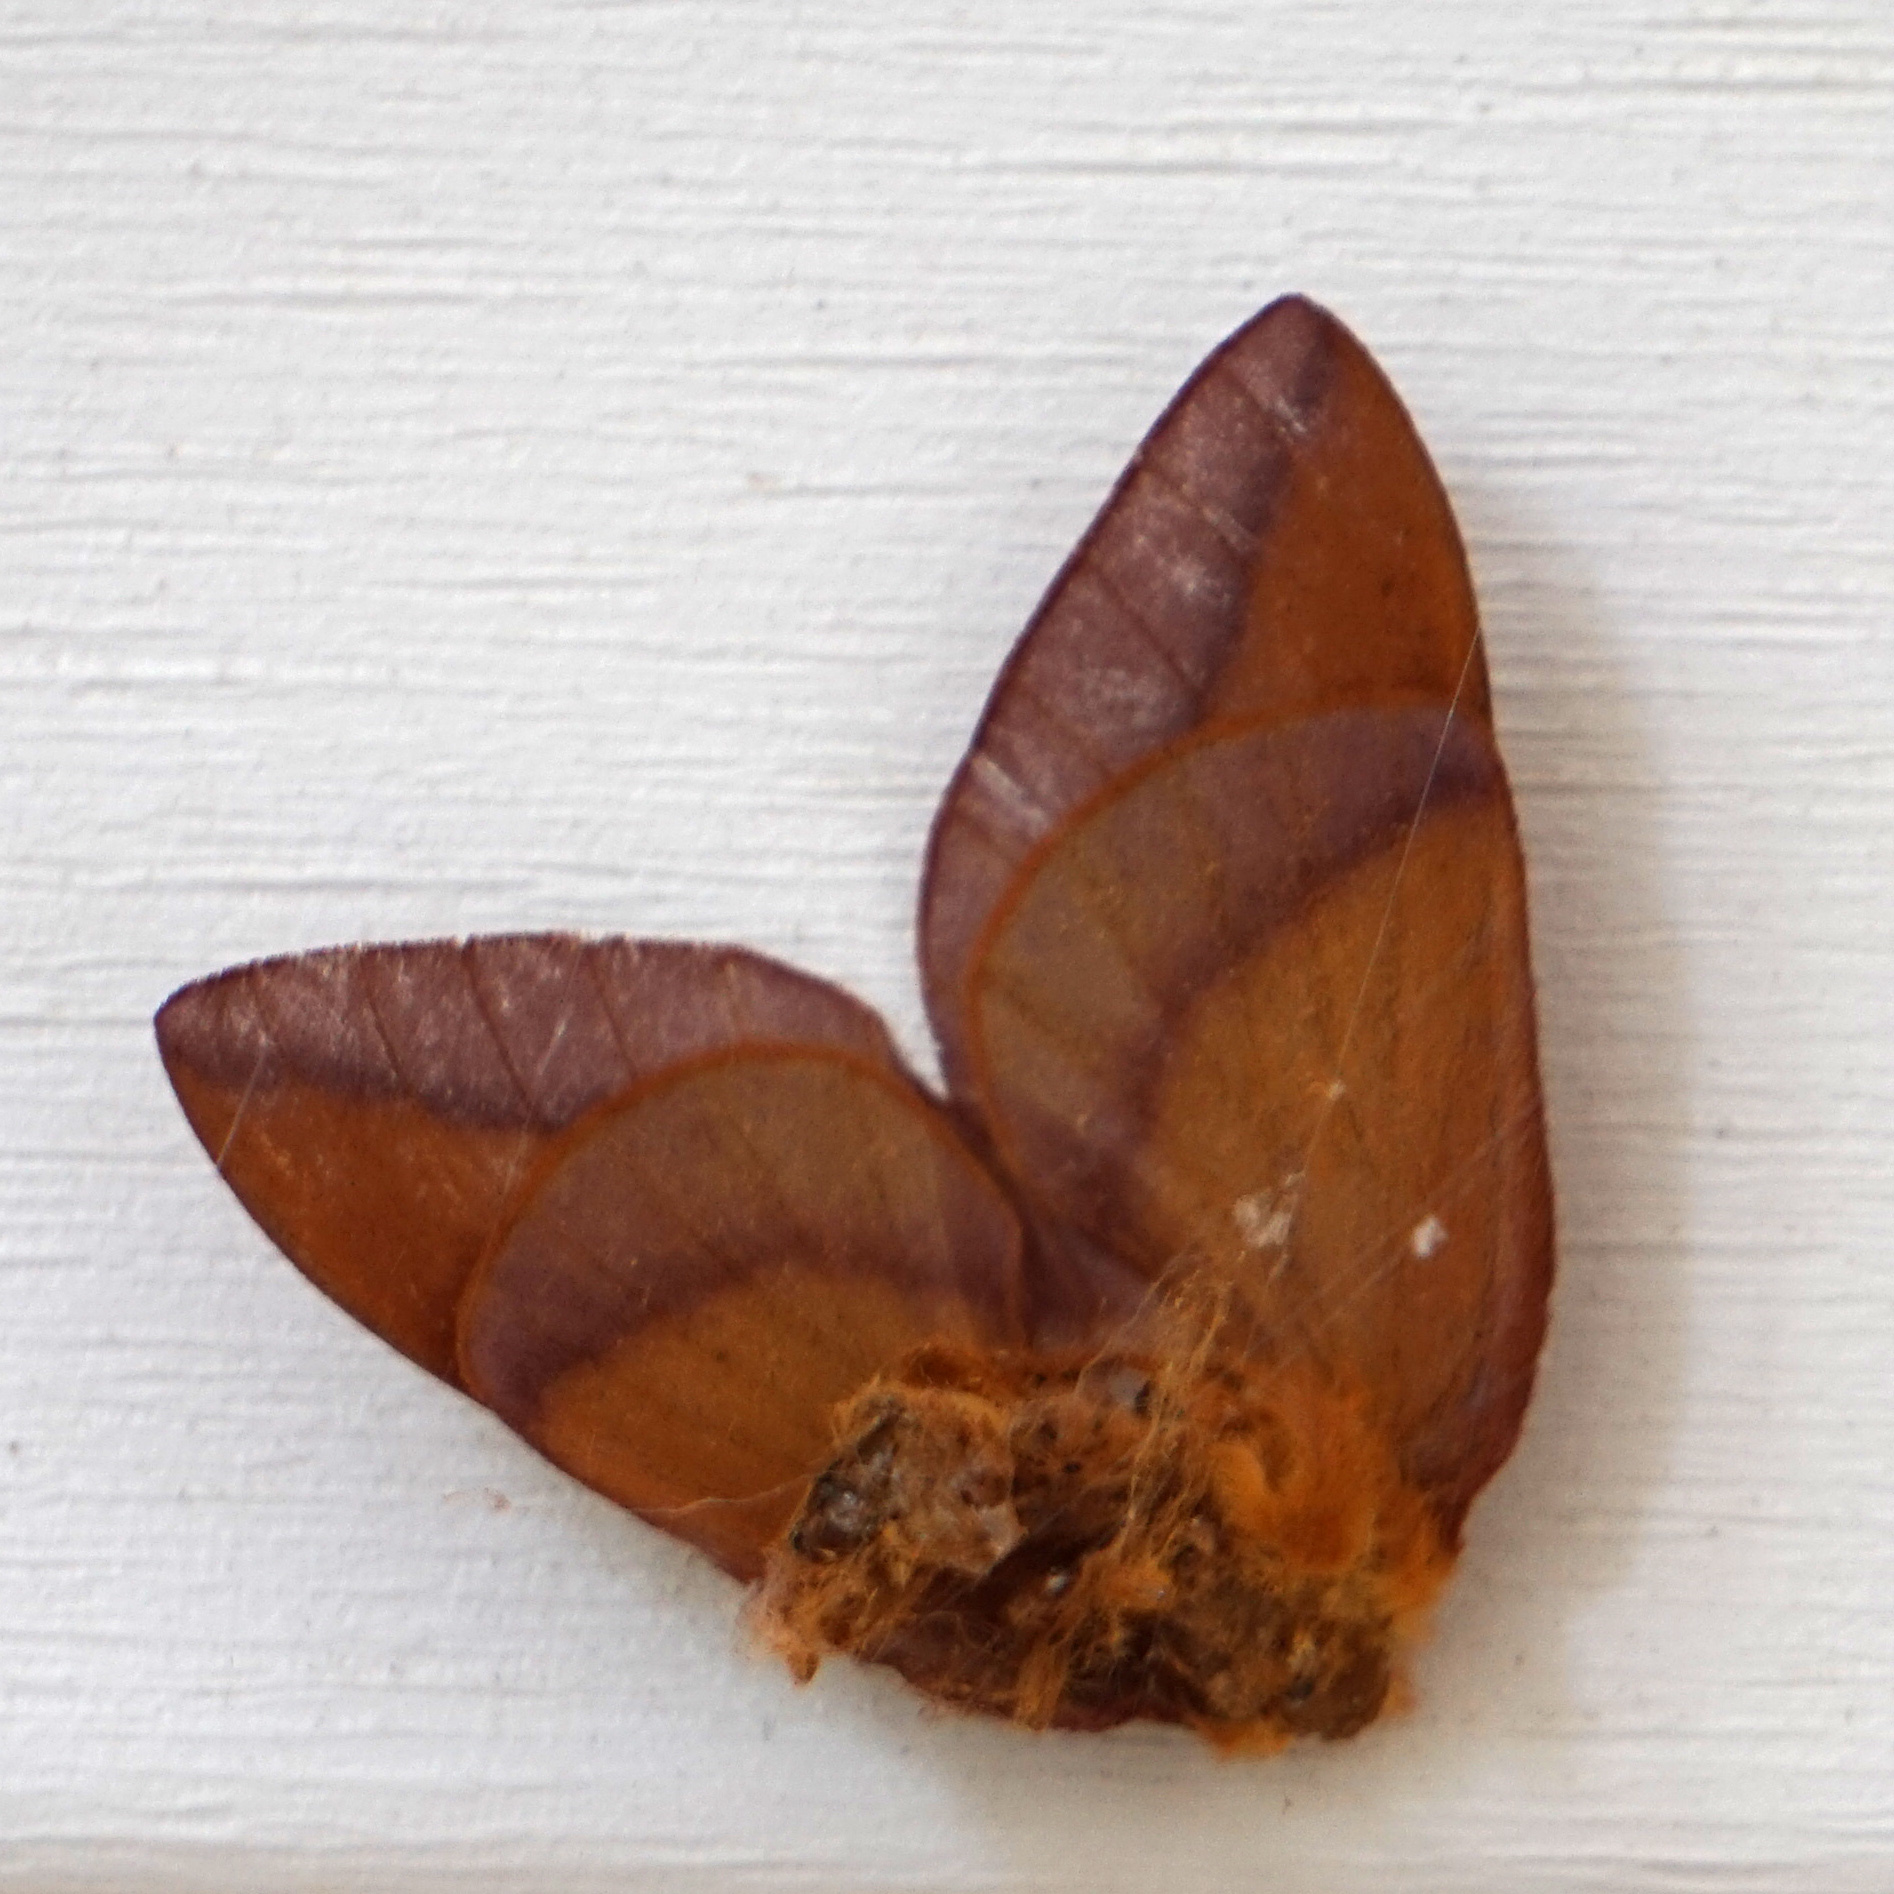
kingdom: Animalia
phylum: Arthropoda
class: Insecta
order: Lepidoptera
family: Saturniidae
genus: Anisota
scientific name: Anisota virginiensis
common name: Pink striped oakworm moth
